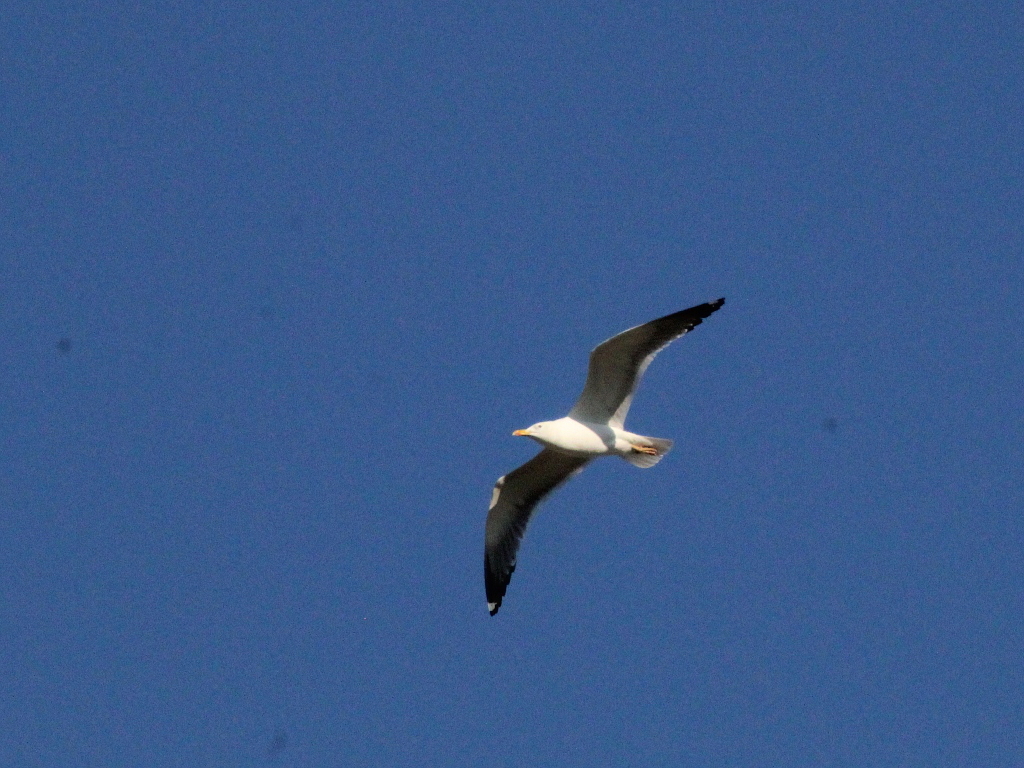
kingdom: Animalia
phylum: Chordata
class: Aves
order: Charadriiformes
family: Laridae
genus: Larus
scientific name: Larus fuscus
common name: Lesser black-backed gull
